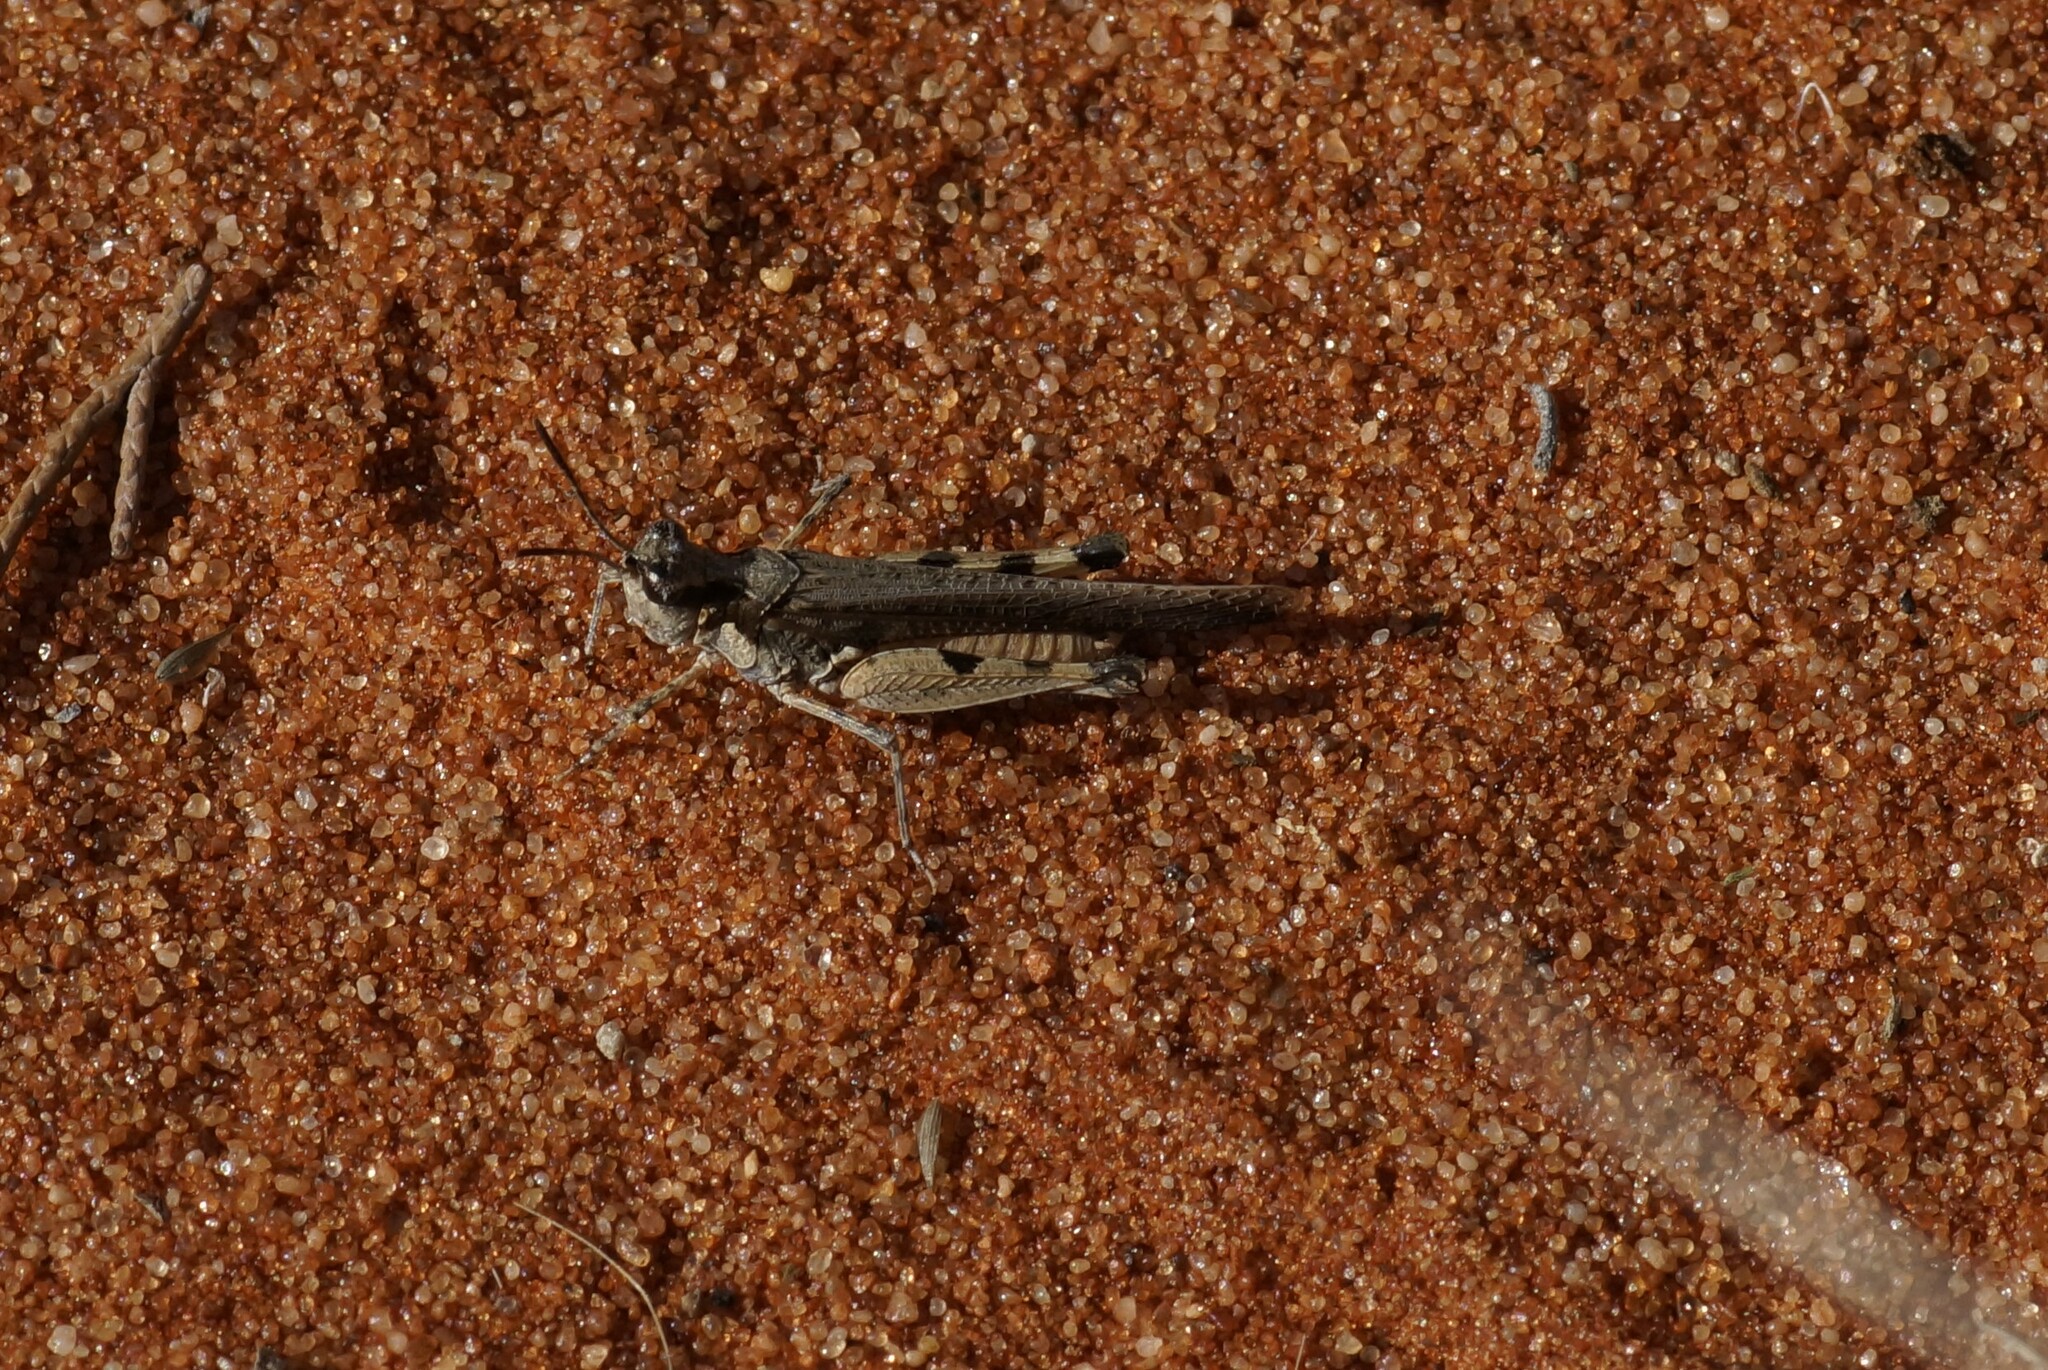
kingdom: Animalia
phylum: Arthropoda
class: Insecta
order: Orthoptera
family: Acrididae
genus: Pycnostictus
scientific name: Pycnostictus seriatus
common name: Common bandwing
